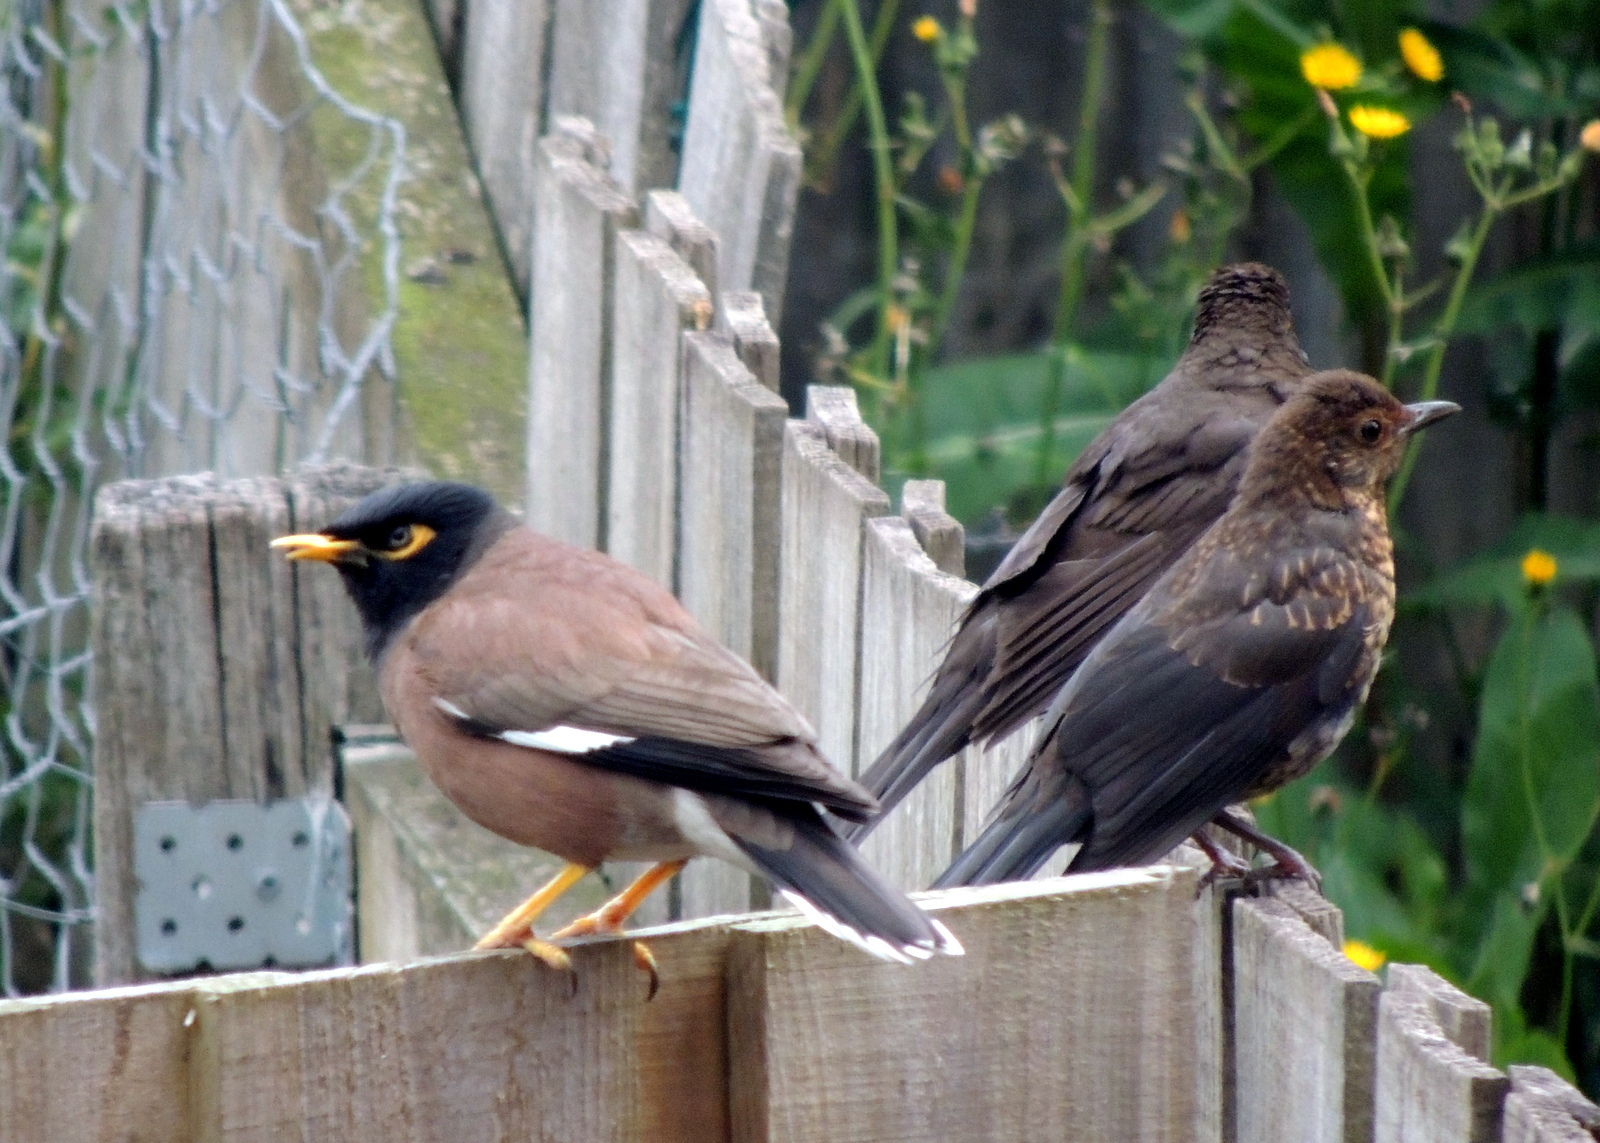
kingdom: Animalia
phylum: Chordata
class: Aves
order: Passeriformes
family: Turdidae
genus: Turdus
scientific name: Turdus merula
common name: Common blackbird
